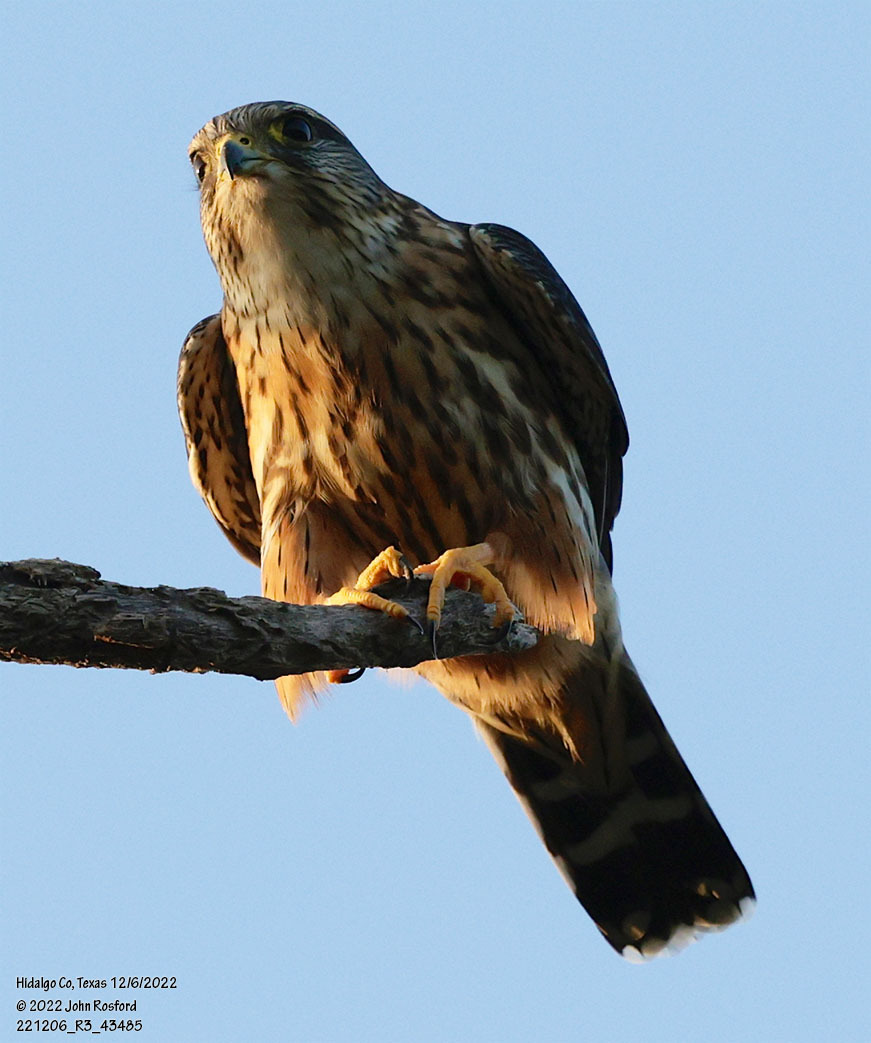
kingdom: Animalia
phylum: Chordata
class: Aves
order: Falconiformes
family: Falconidae
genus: Falco
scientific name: Falco columbarius
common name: Merlin
